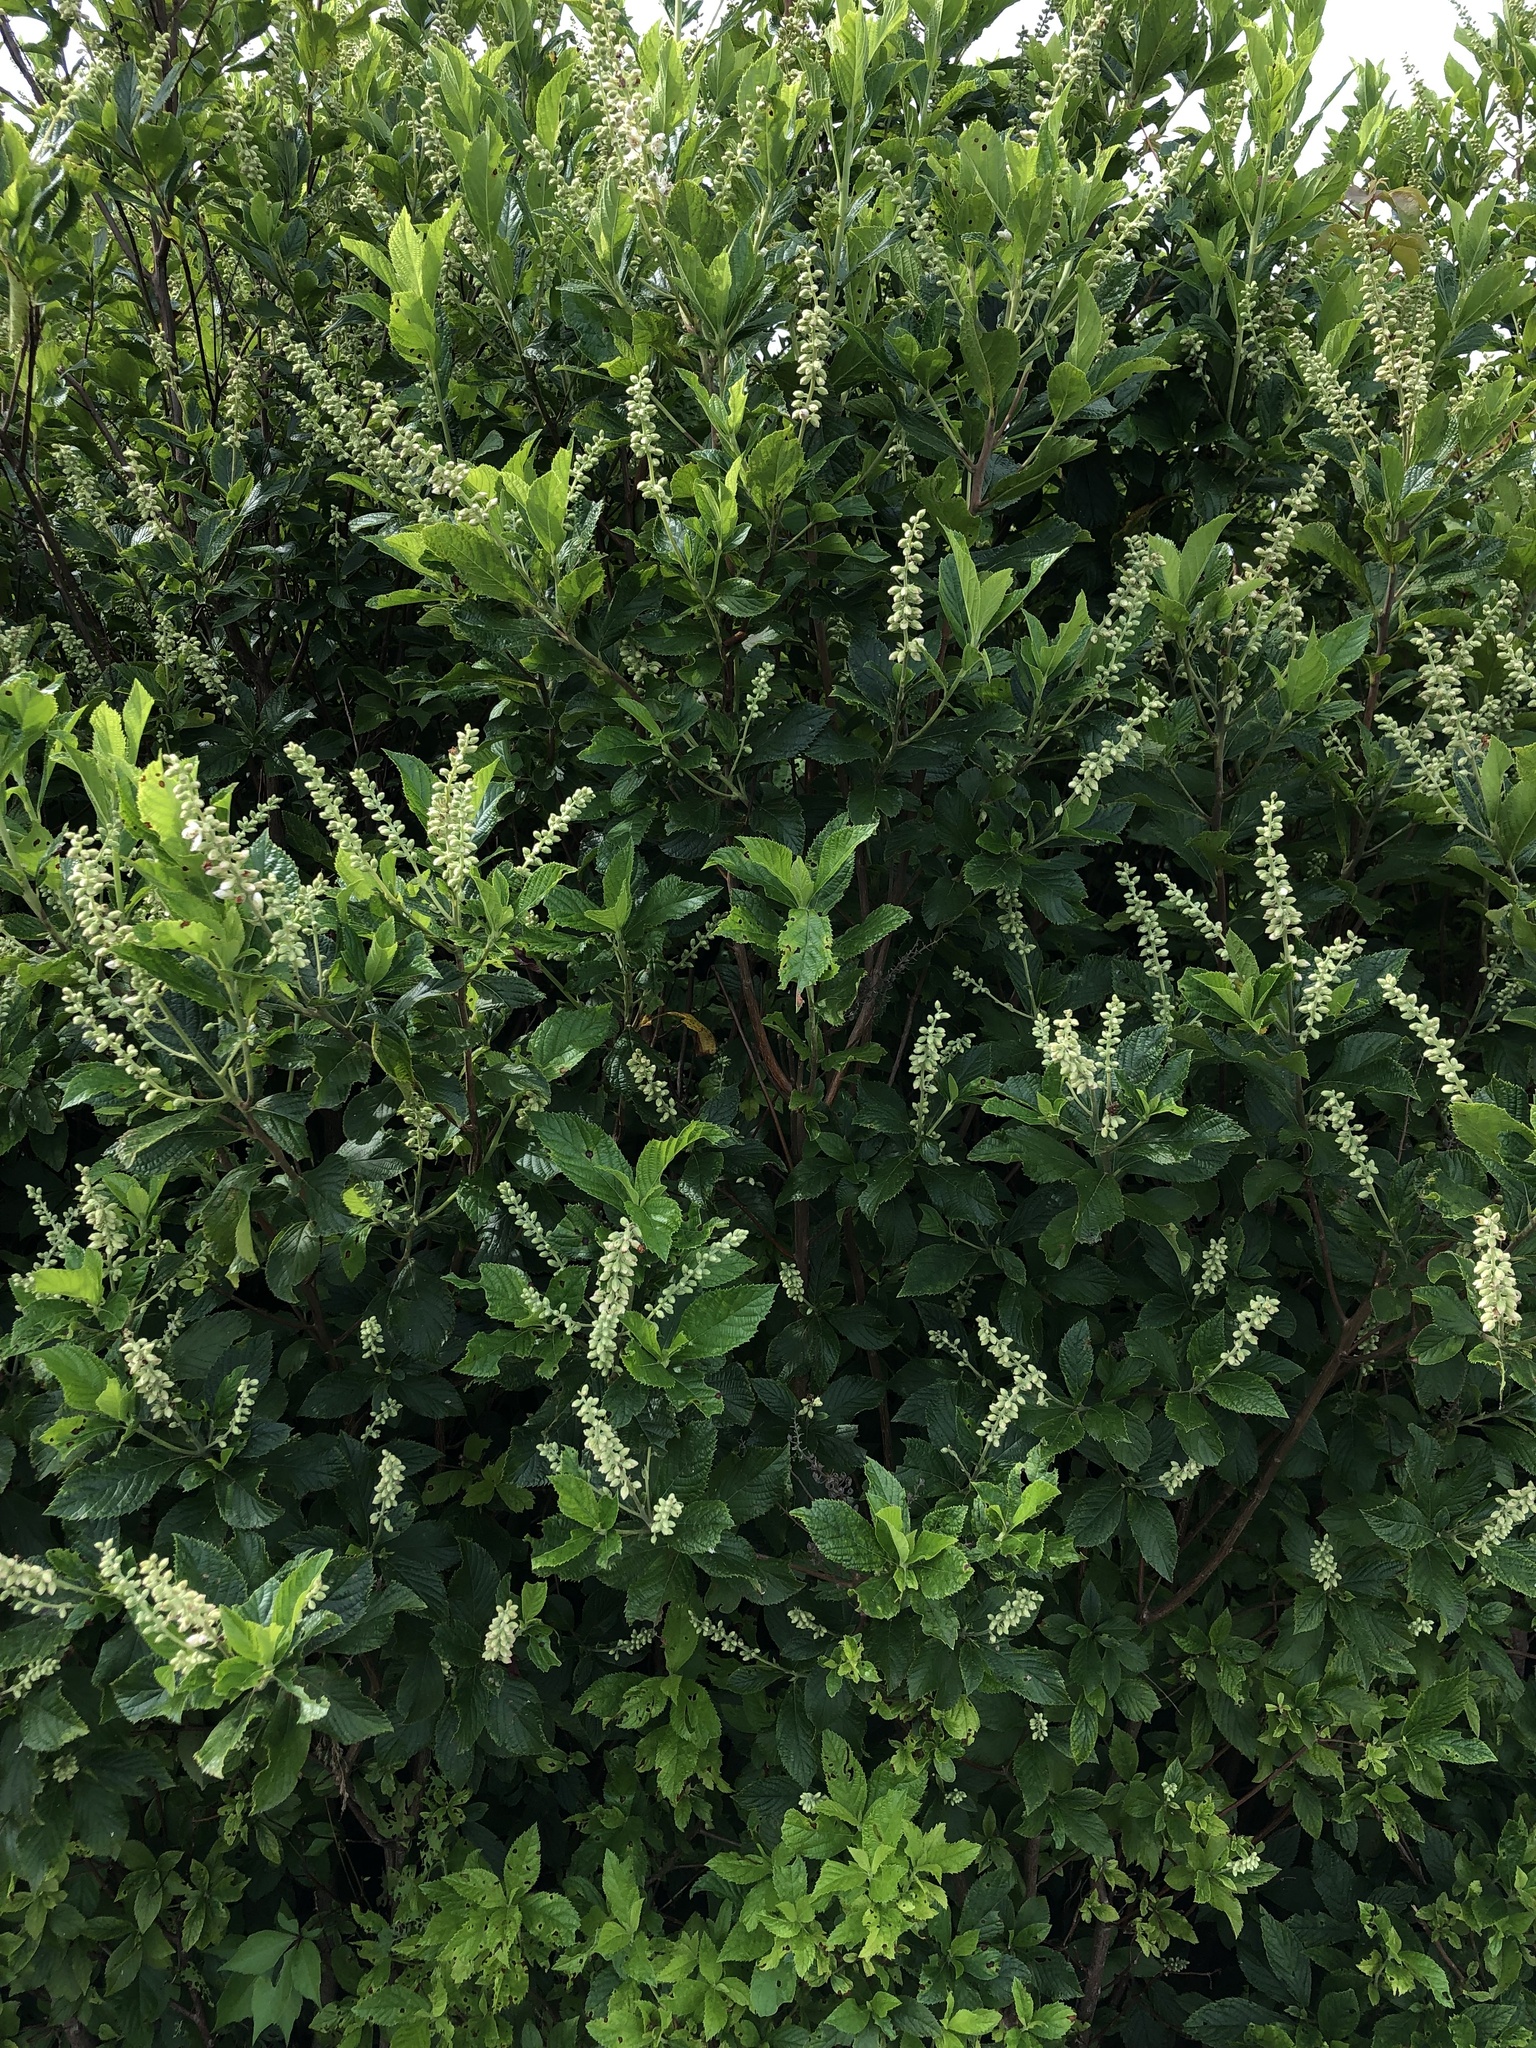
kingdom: Plantae
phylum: Tracheophyta
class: Magnoliopsida
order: Ericales
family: Clethraceae
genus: Clethra
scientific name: Clethra alnifolia
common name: Sweet pepperbush
